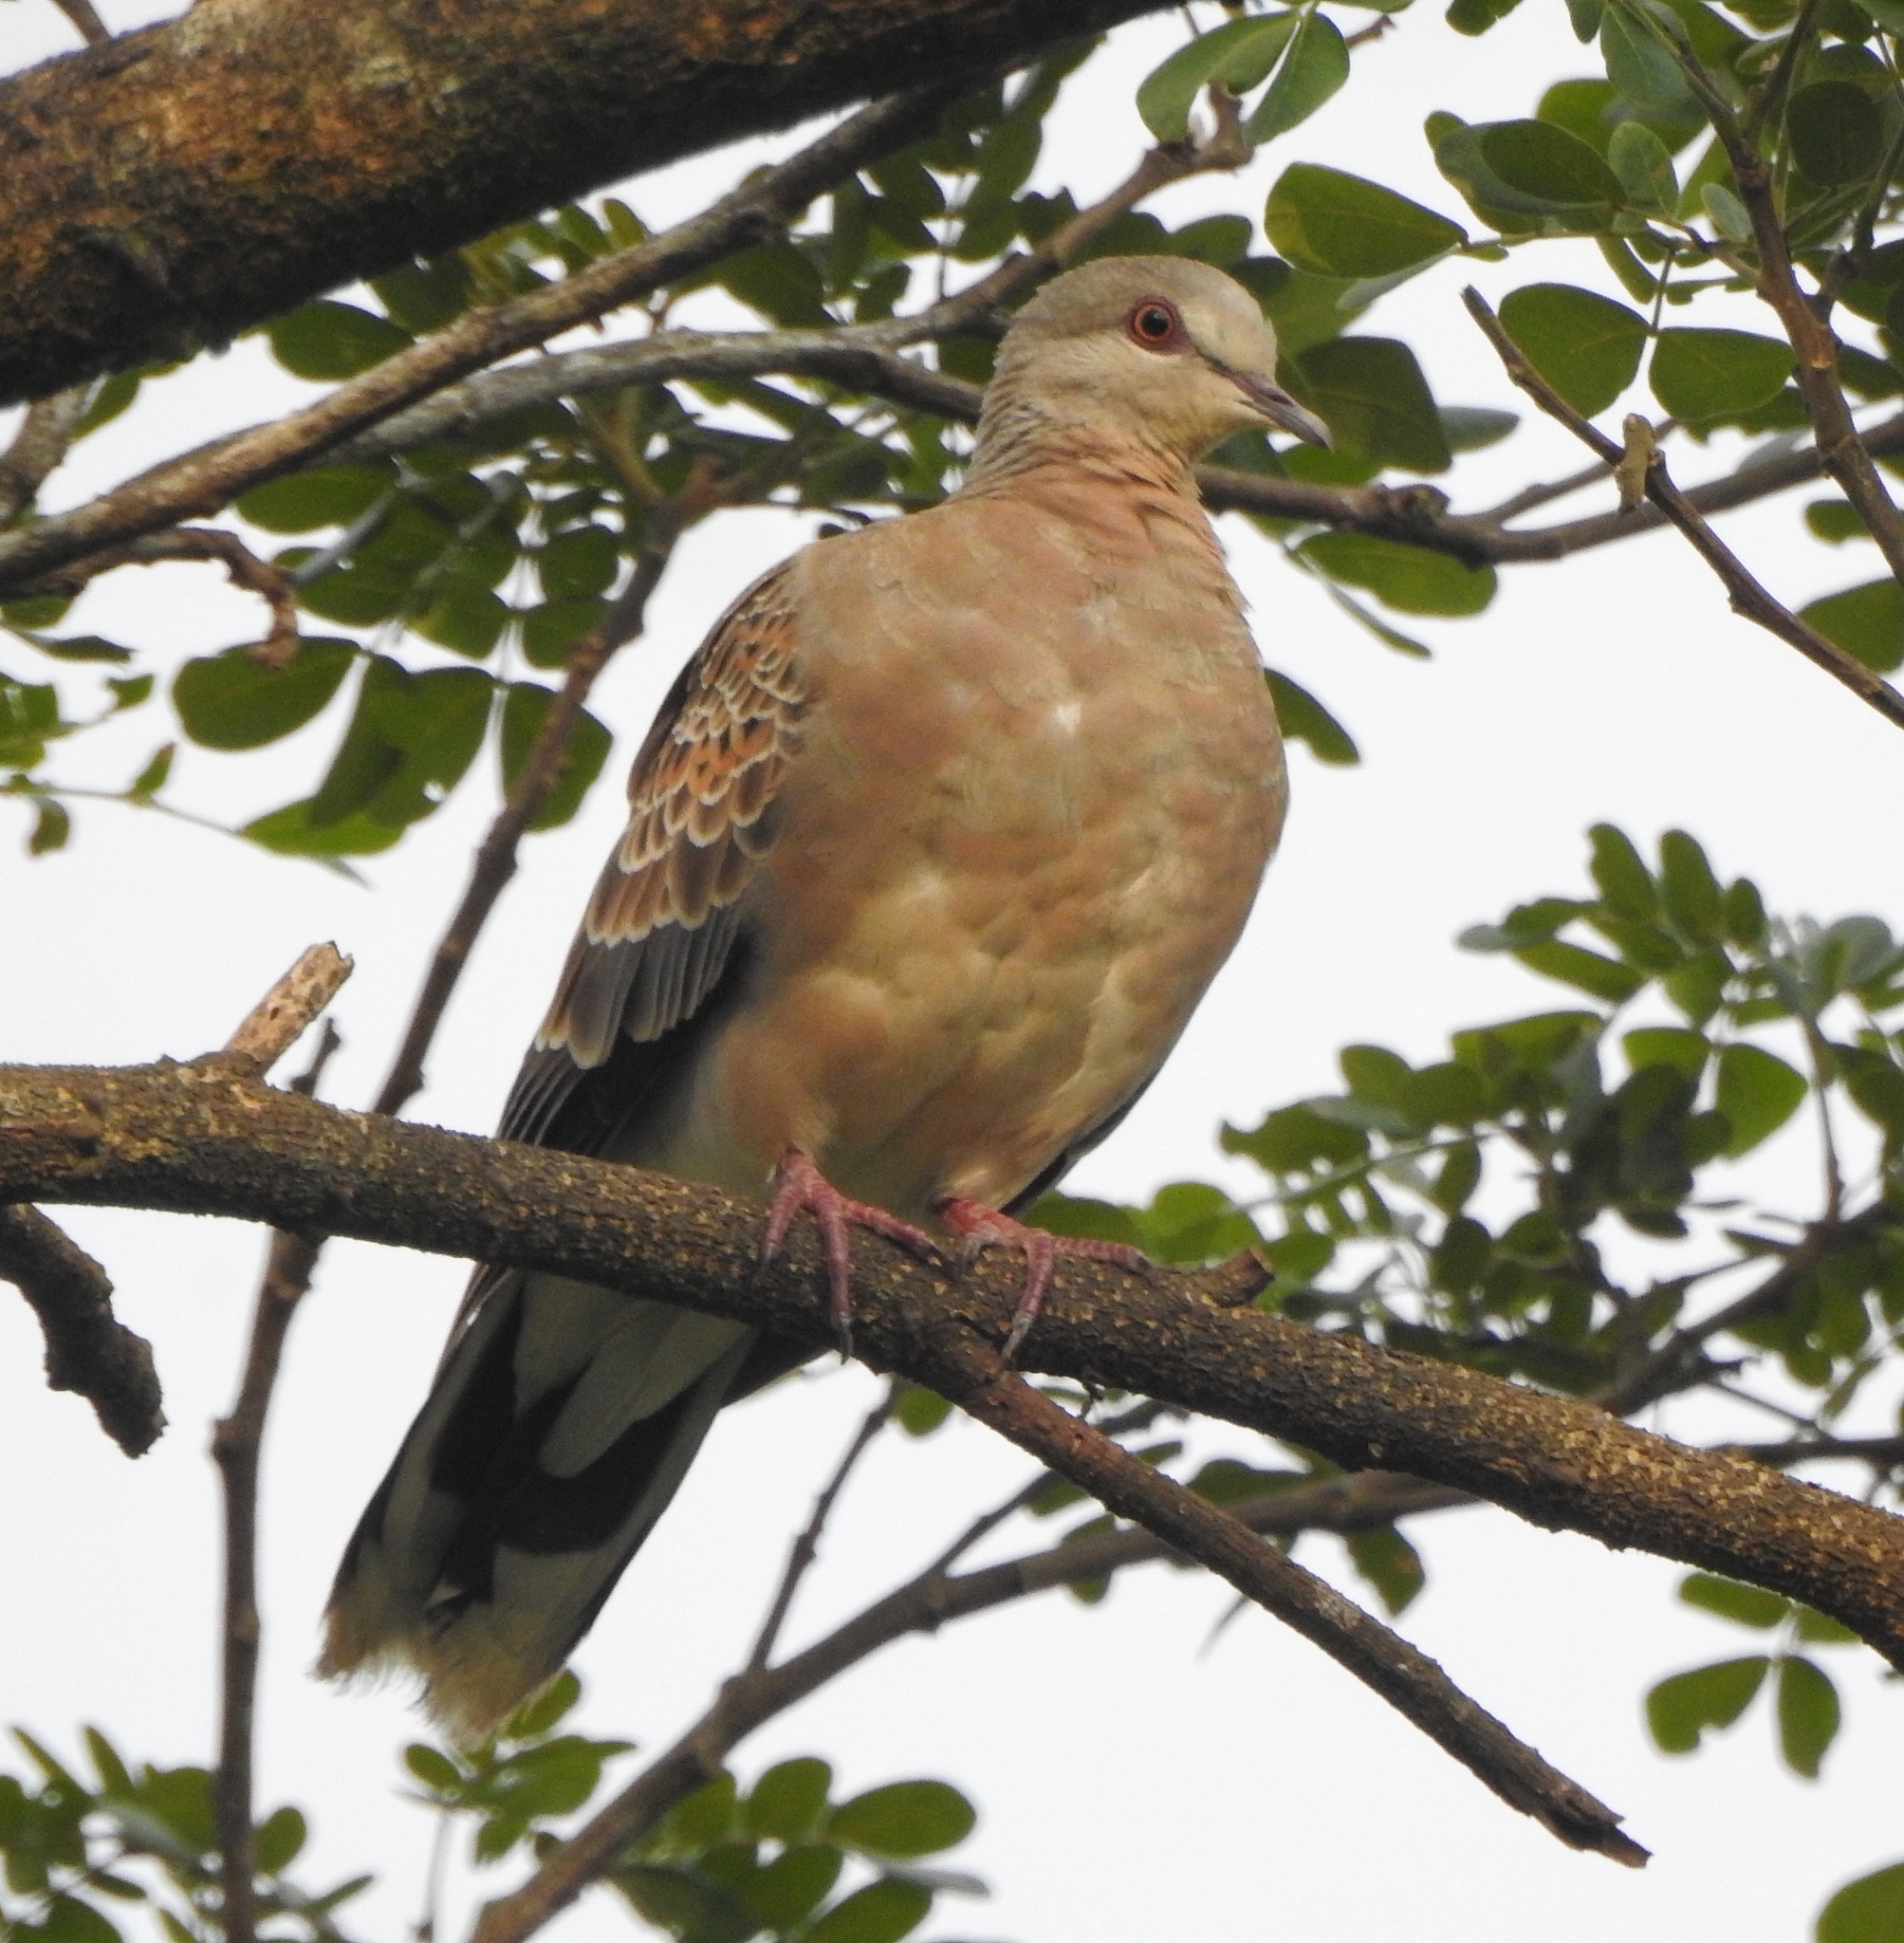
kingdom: Animalia
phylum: Chordata
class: Aves
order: Columbiformes
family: Columbidae
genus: Streptopelia
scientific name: Streptopelia orientalis
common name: Oriental turtle dove
